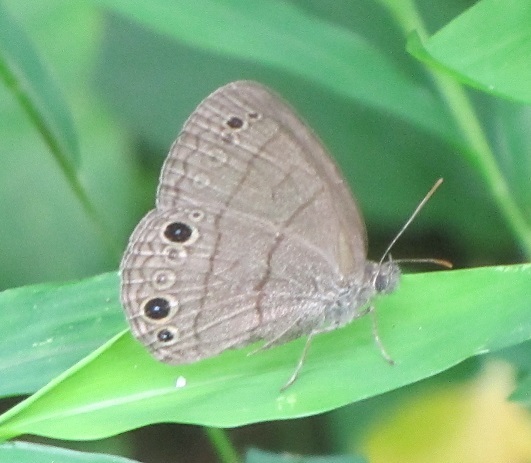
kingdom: Animalia
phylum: Arthropoda
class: Insecta
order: Lepidoptera
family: Nymphalidae
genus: Hermeuptychia
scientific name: Hermeuptychia hermes
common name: Hermes satyr
